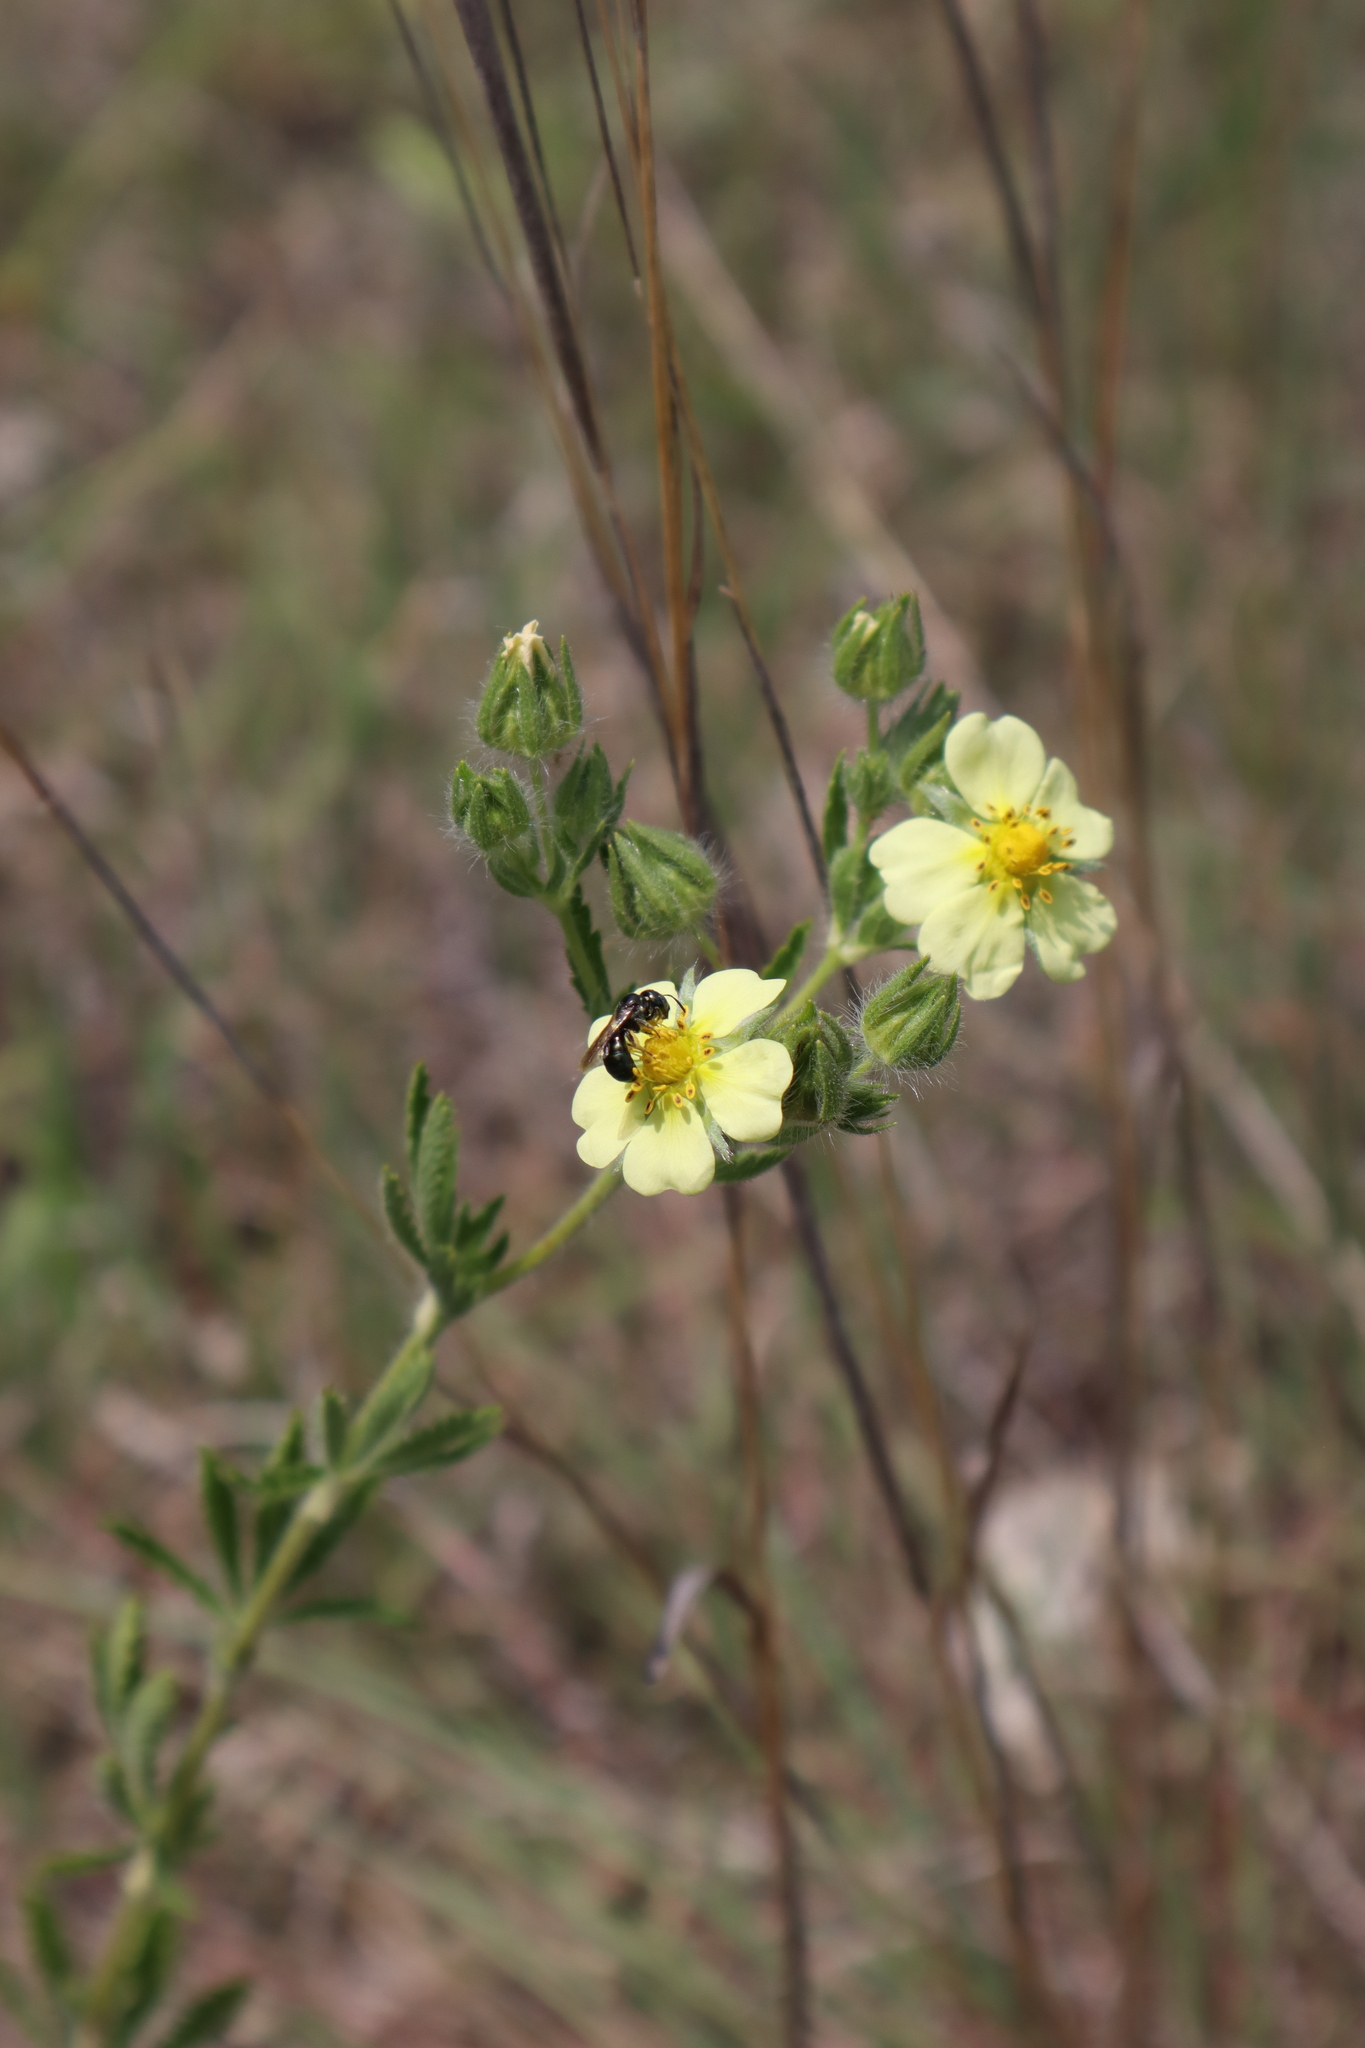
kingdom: Plantae
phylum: Tracheophyta
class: Magnoliopsida
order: Rosales
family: Rosaceae
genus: Potentilla
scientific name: Potentilla recta
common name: Sulphur cinquefoil
